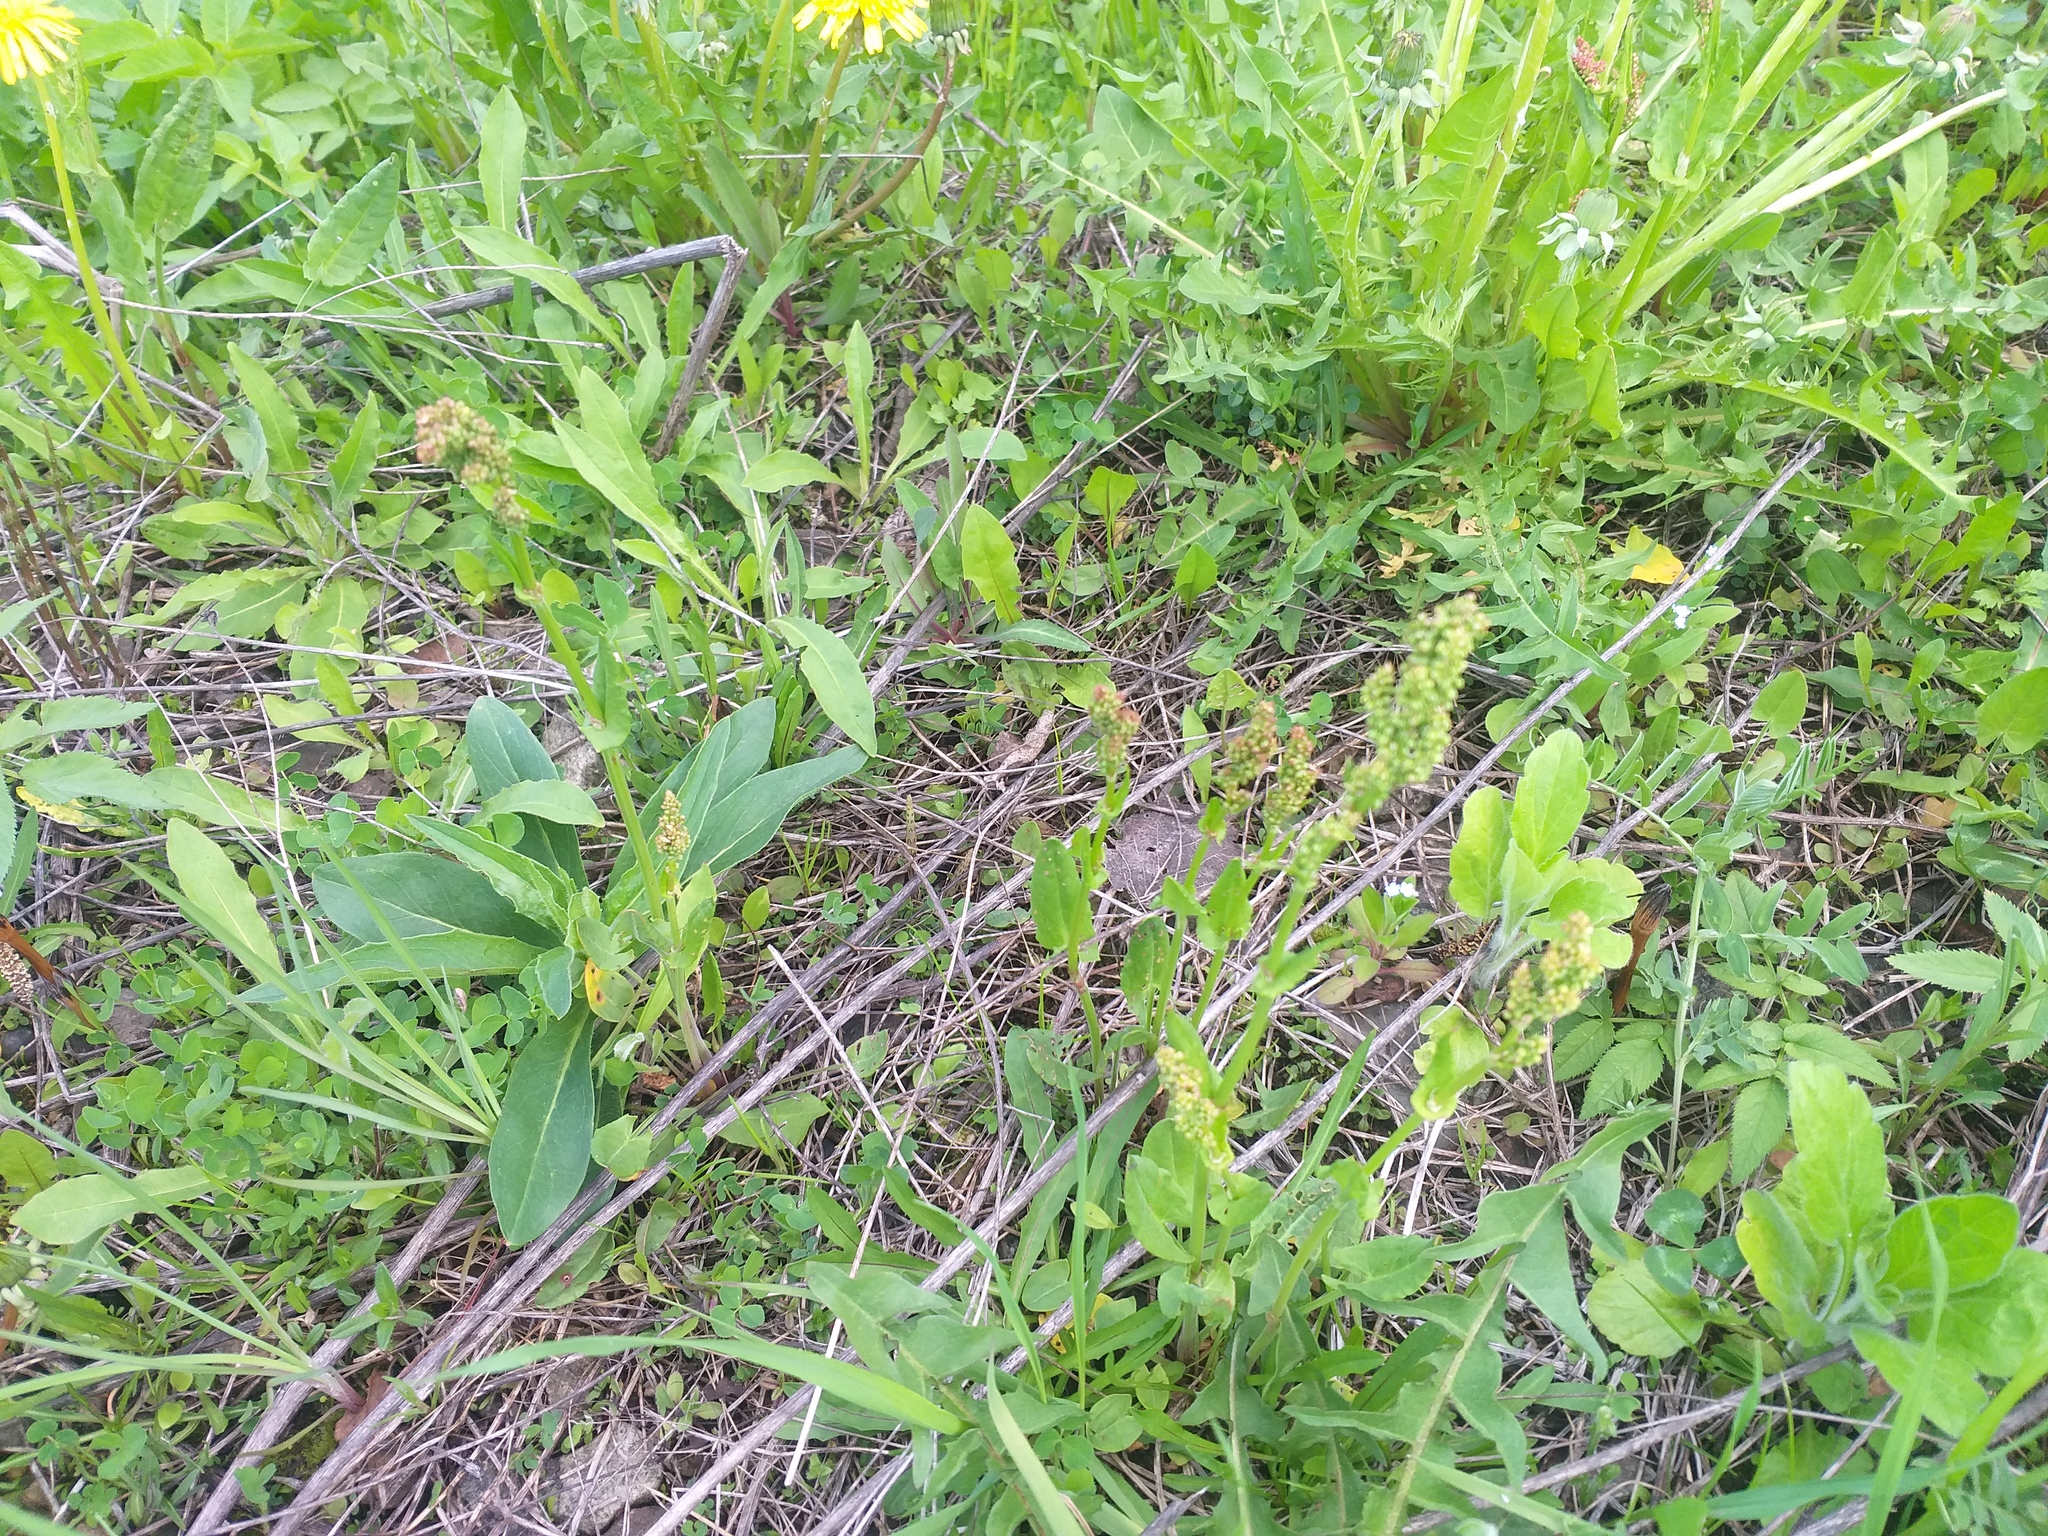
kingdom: Plantae
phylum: Tracheophyta
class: Magnoliopsida
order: Caryophyllales
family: Polygonaceae
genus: Rumex
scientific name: Rumex acetosa
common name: Garden sorrel
